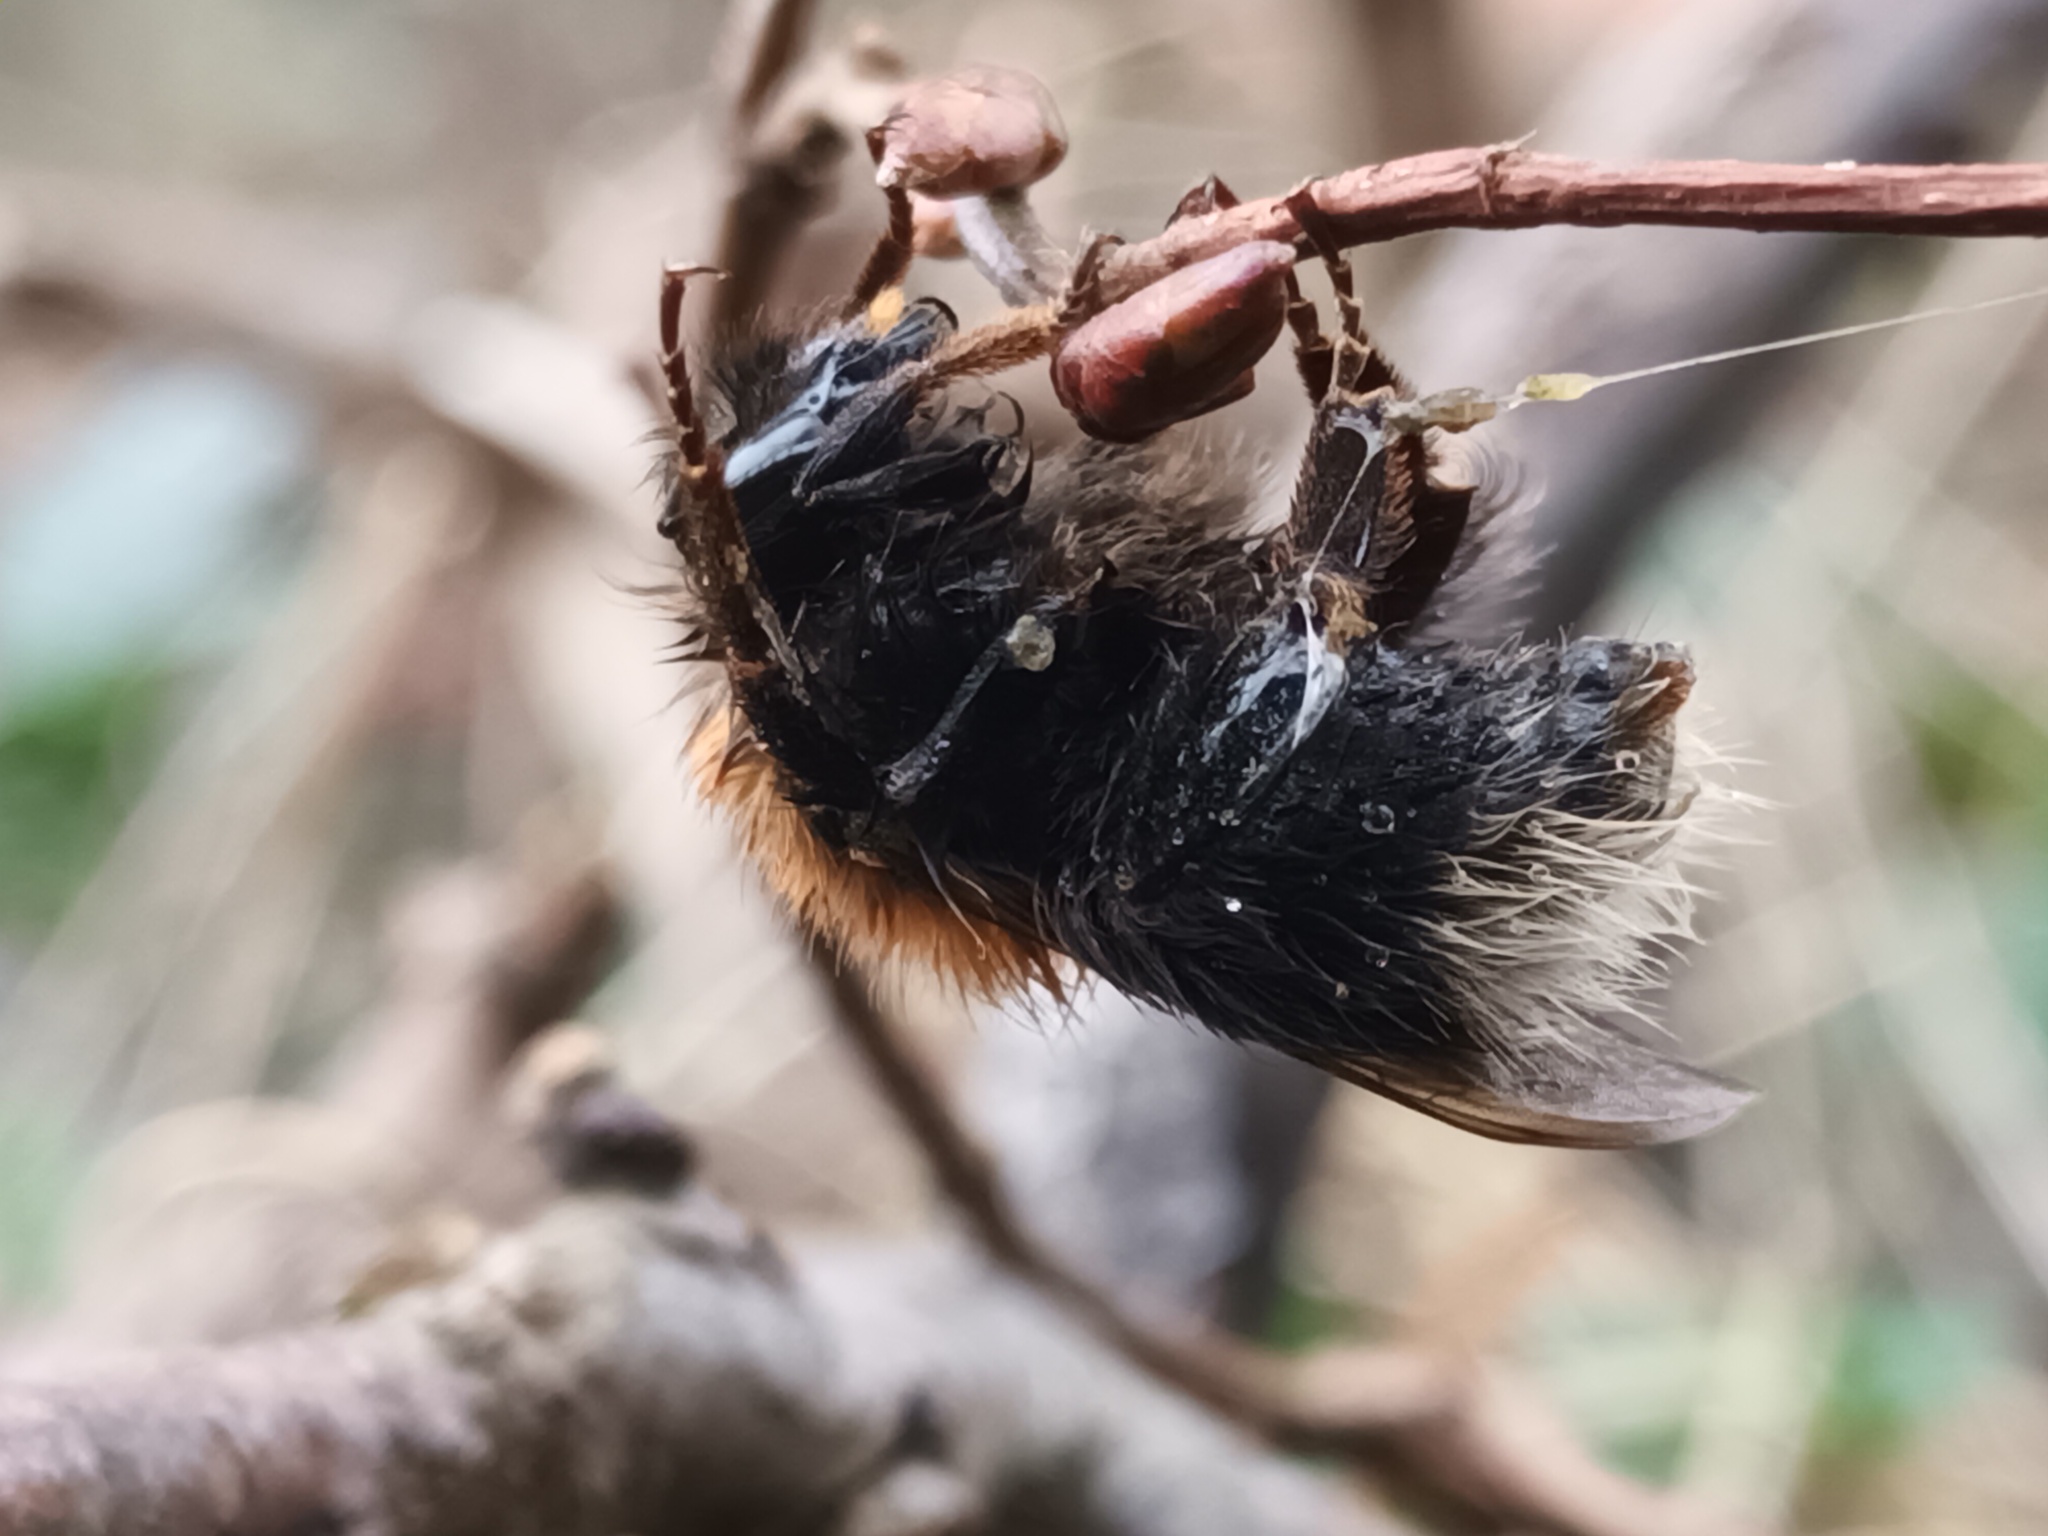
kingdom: Animalia
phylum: Arthropoda
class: Insecta
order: Hymenoptera
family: Apidae
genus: Bombus
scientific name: Bombus hypnorum
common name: New garden bumblebee
